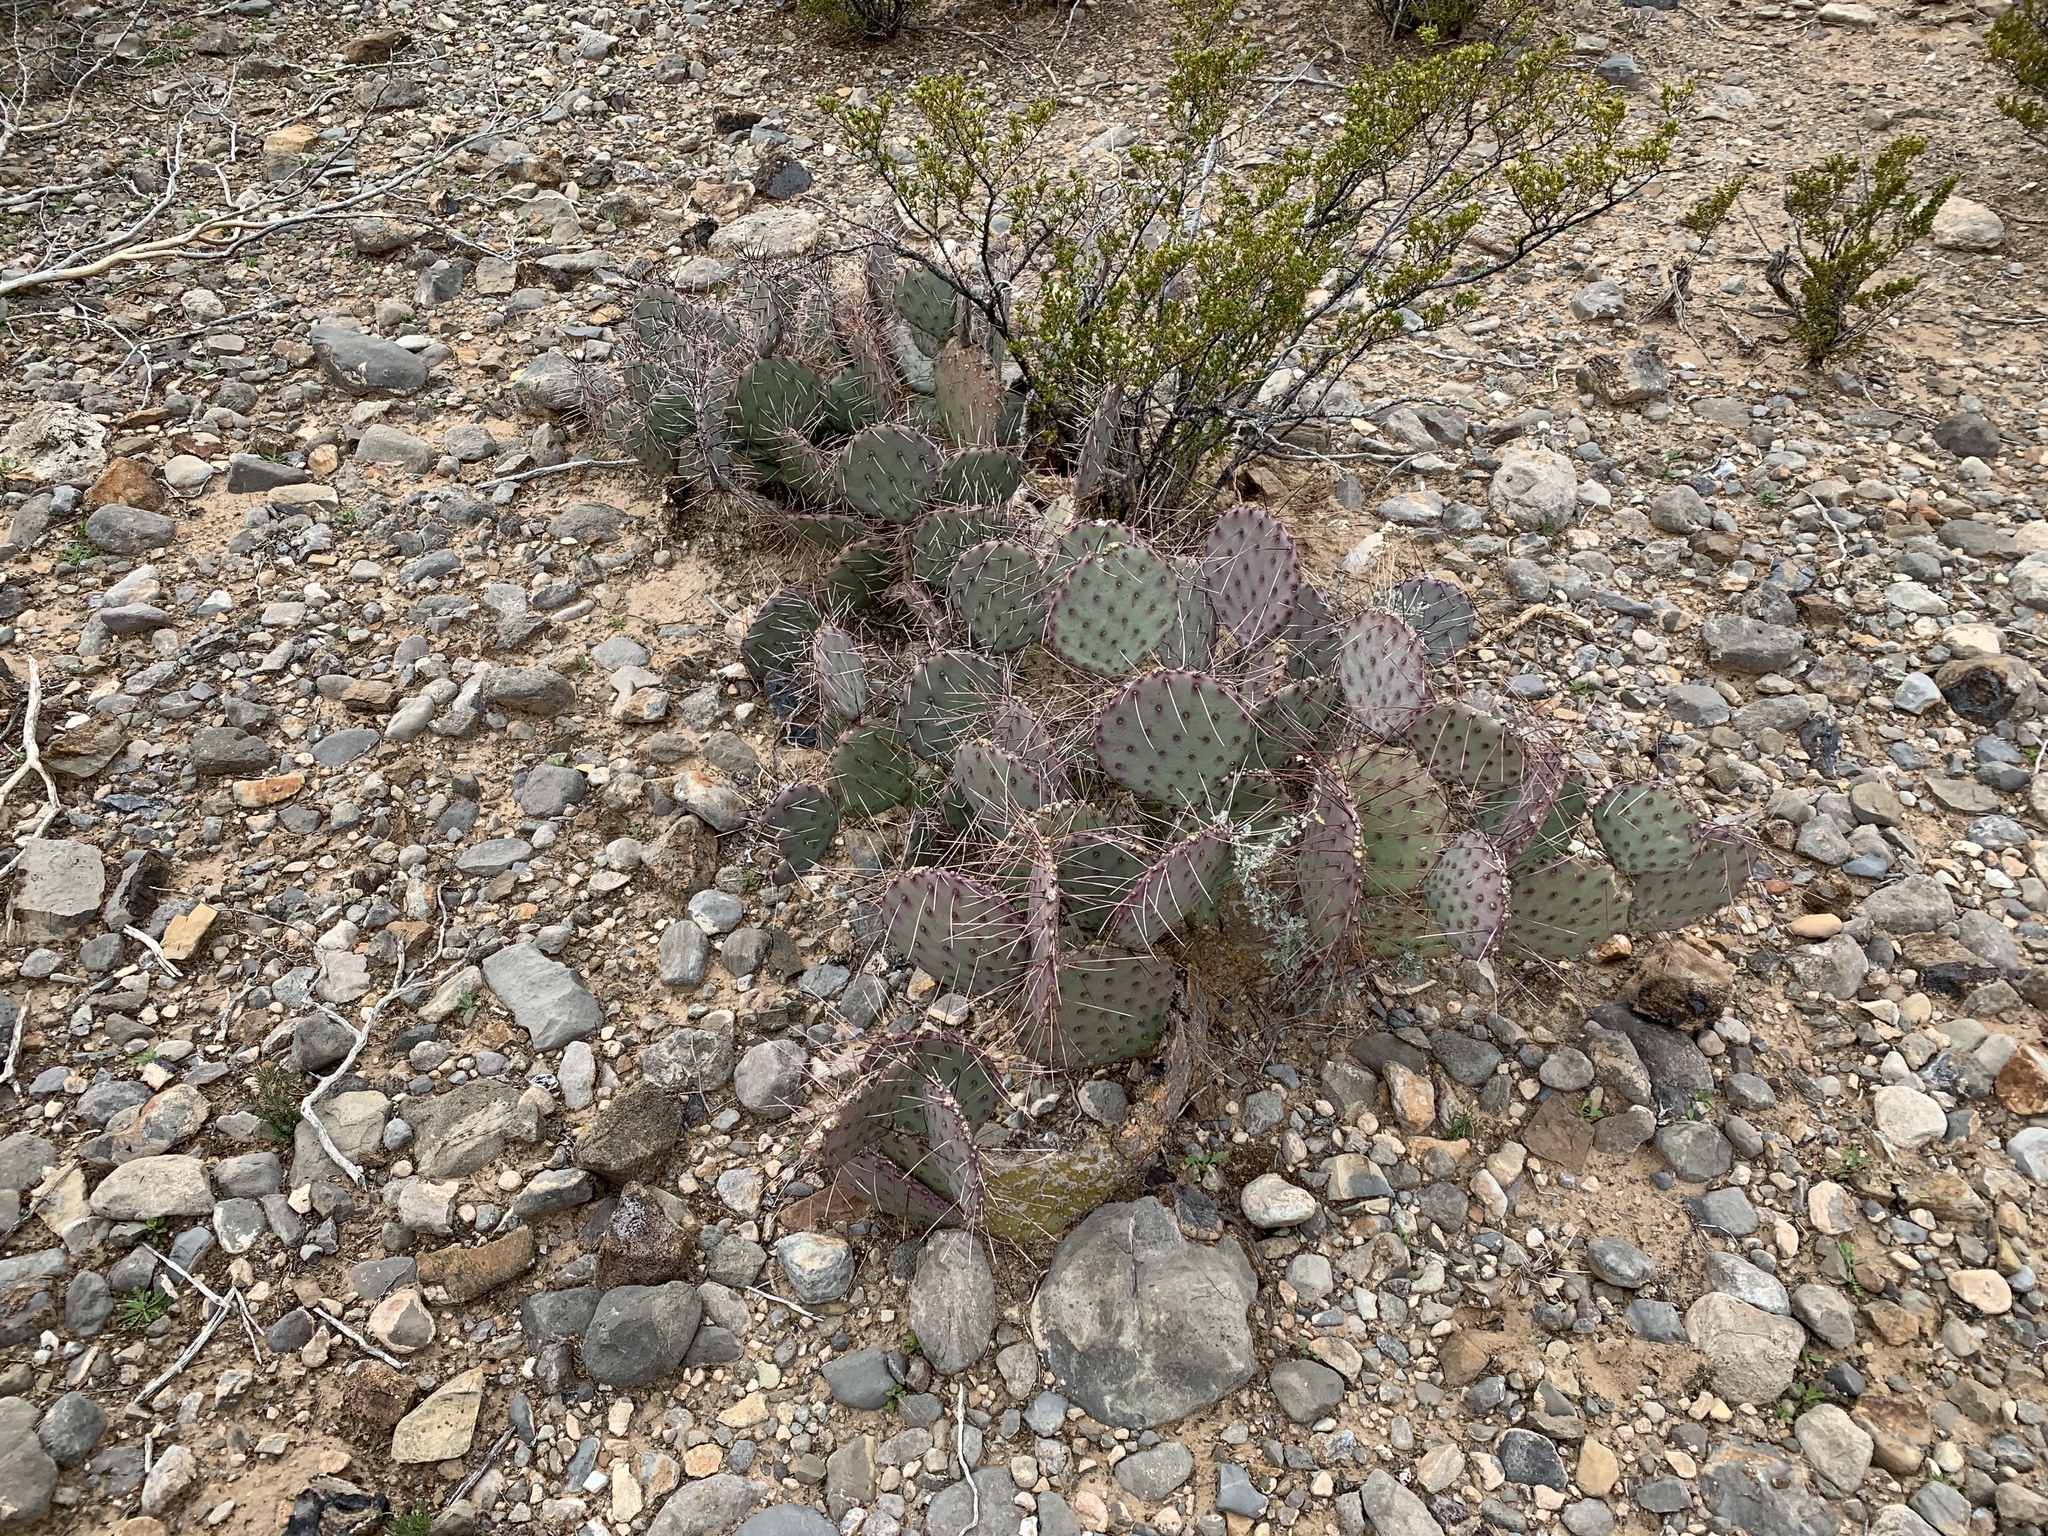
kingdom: Plantae
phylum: Tracheophyta
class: Magnoliopsida
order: Caryophyllales
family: Cactaceae
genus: Opuntia
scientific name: Opuntia macrocentra
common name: Purple prickly-pear
